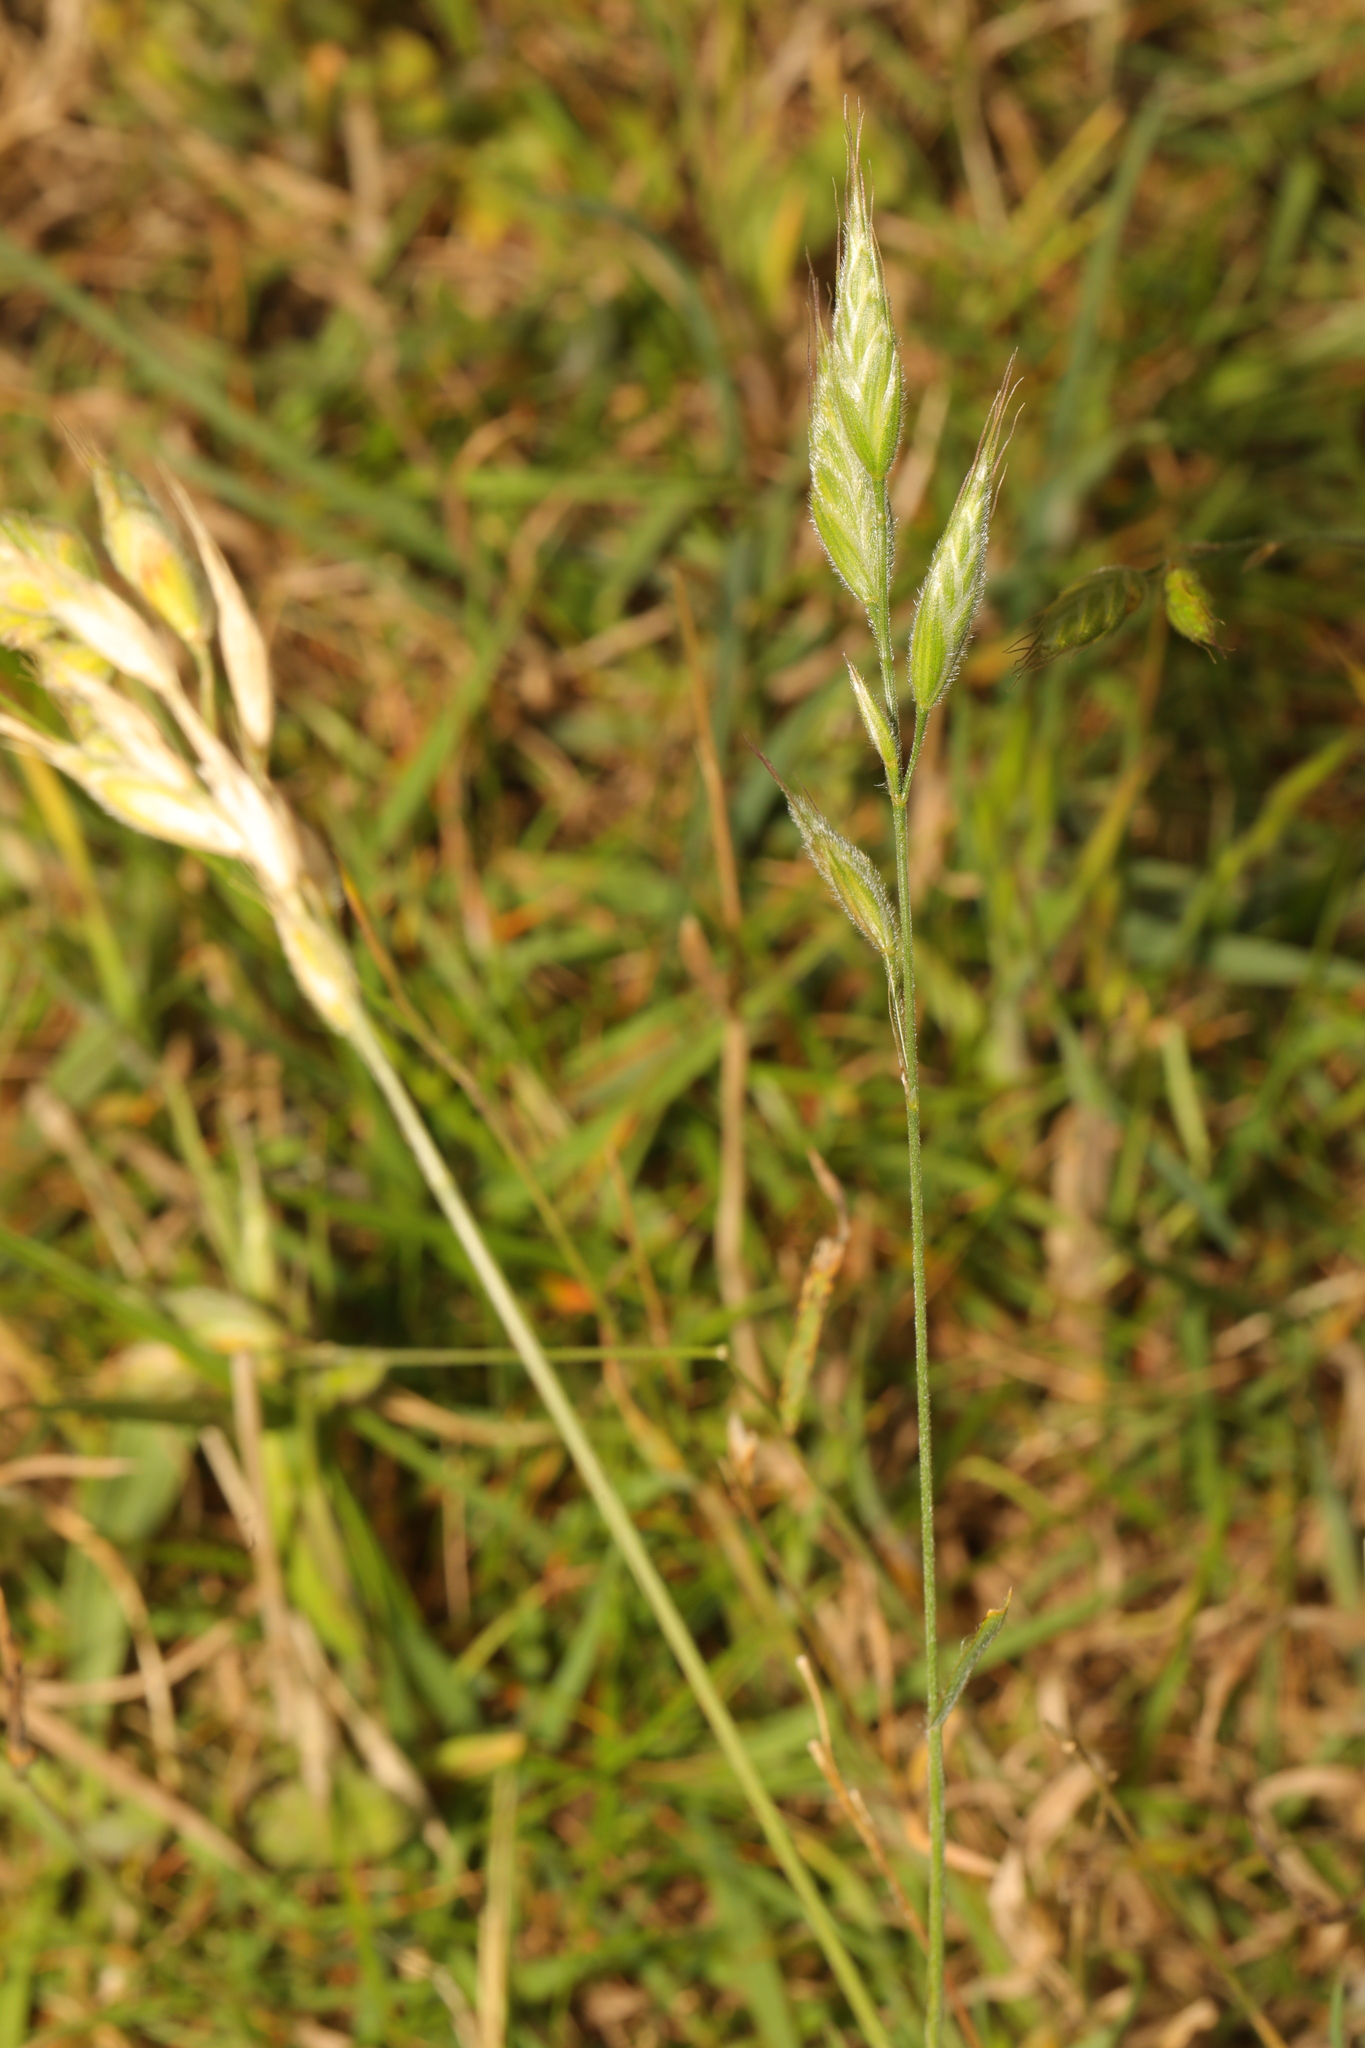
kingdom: Plantae
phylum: Tracheophyta
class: Liliopsida
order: Poales
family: Poaceae
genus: Bromus
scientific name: Bromus hordeaceus
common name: Soft brome
